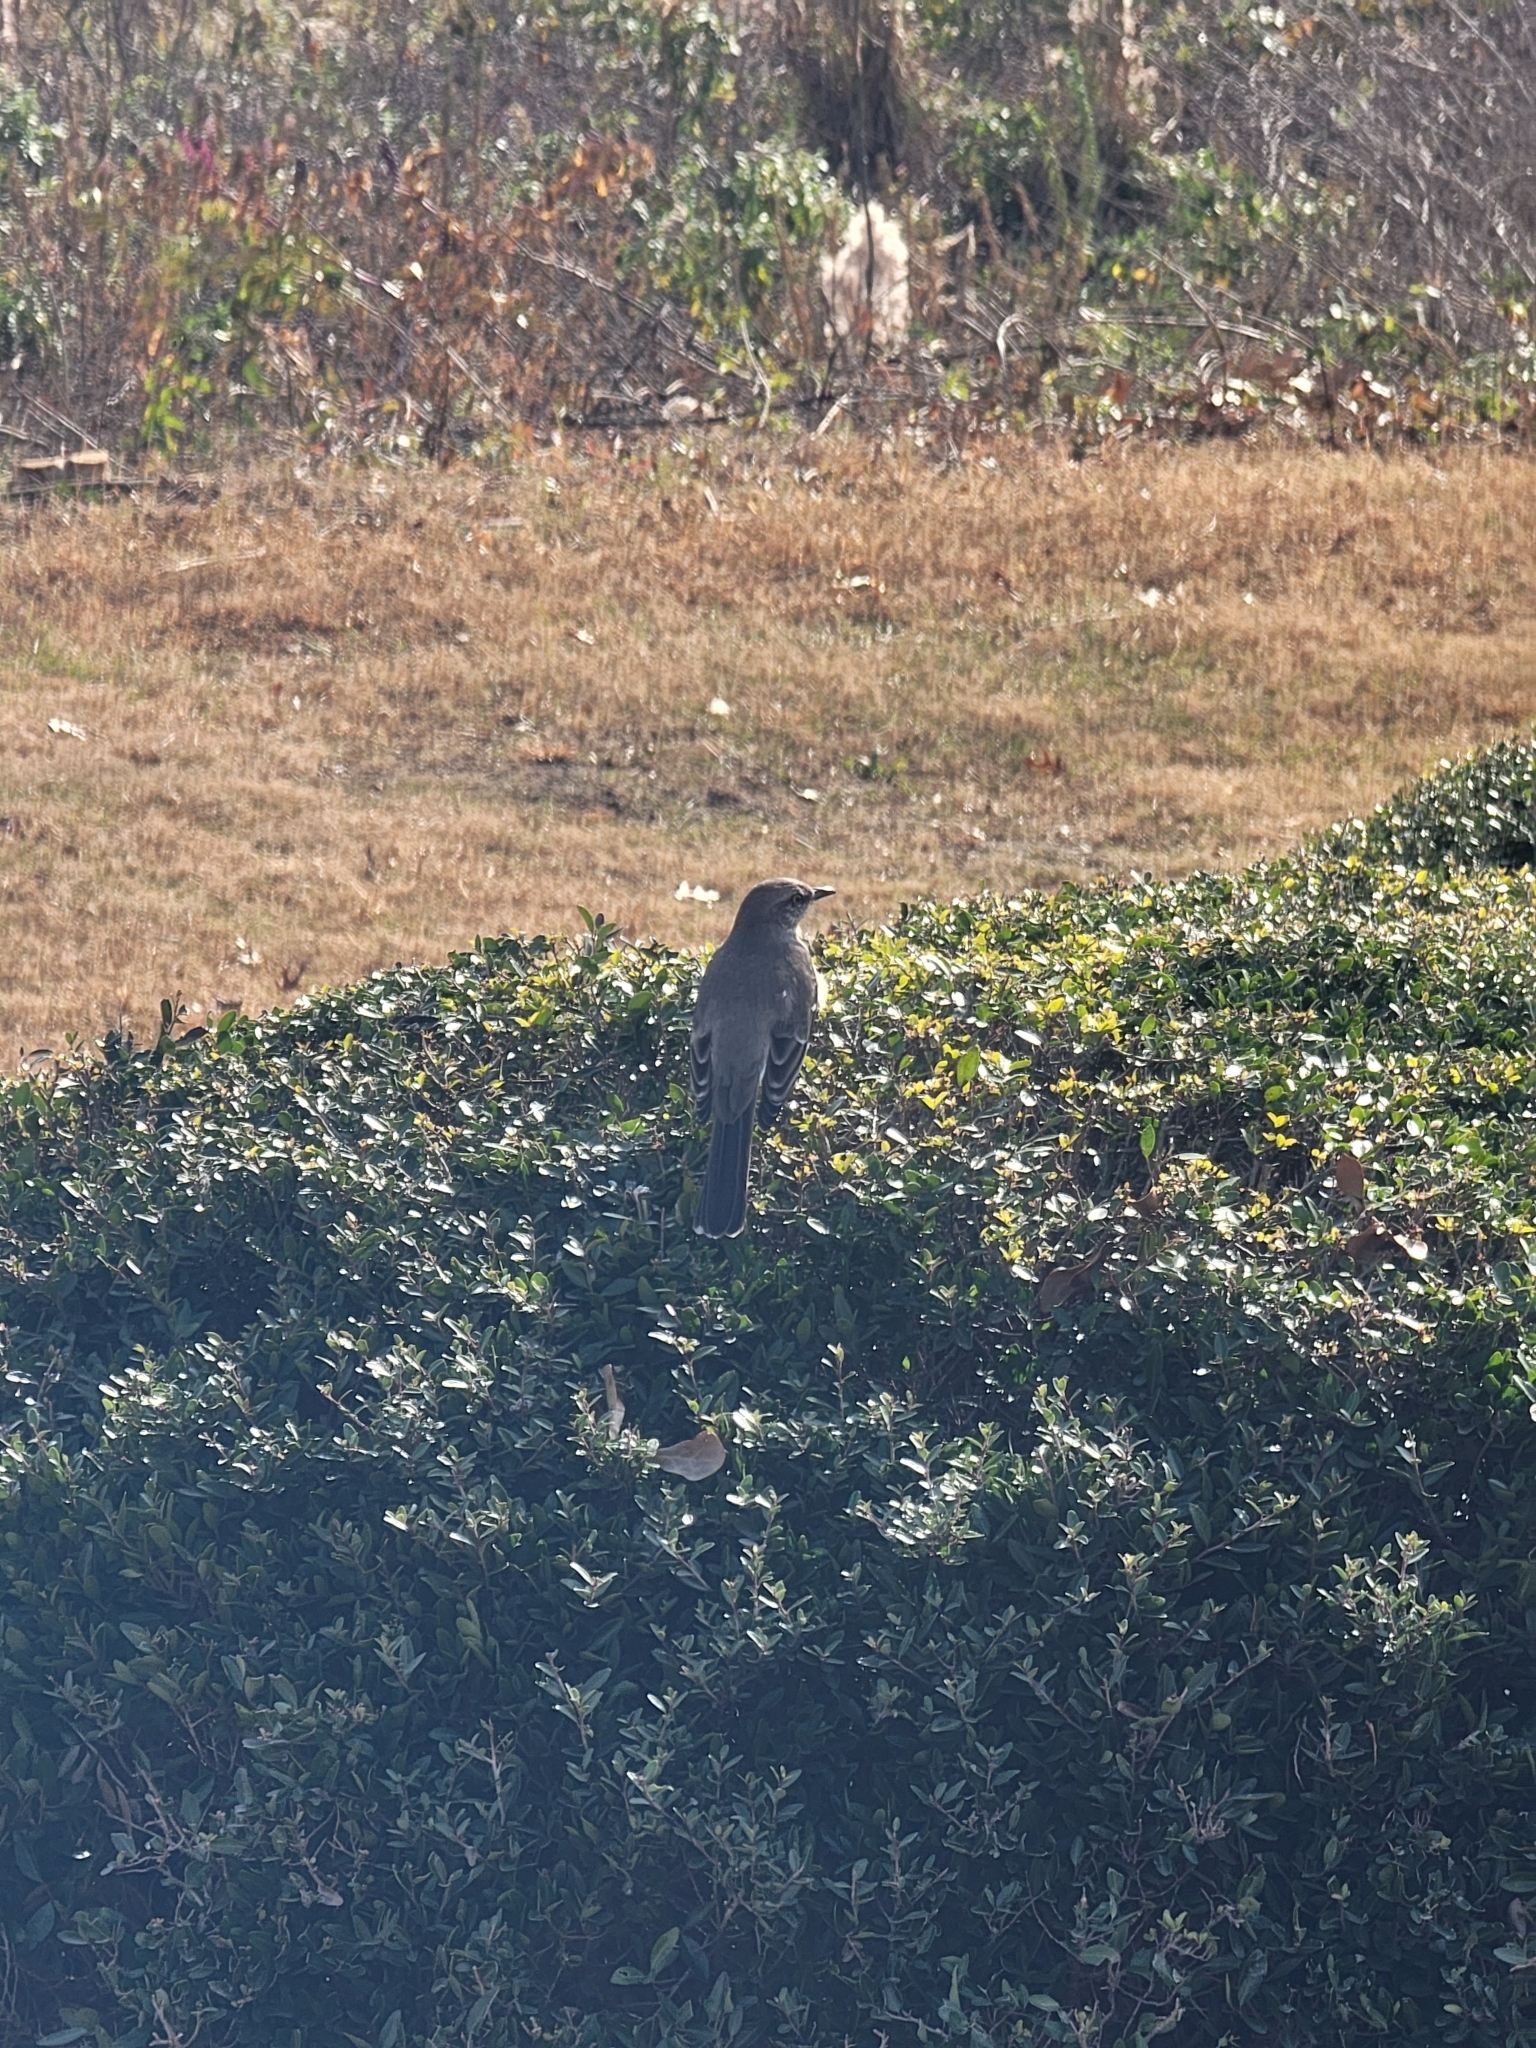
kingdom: Animalia
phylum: Chordata
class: Aves
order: Passeriformes
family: Mimidae
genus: Mimus
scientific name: Mimus polyglottos
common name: Northern mockingbird
